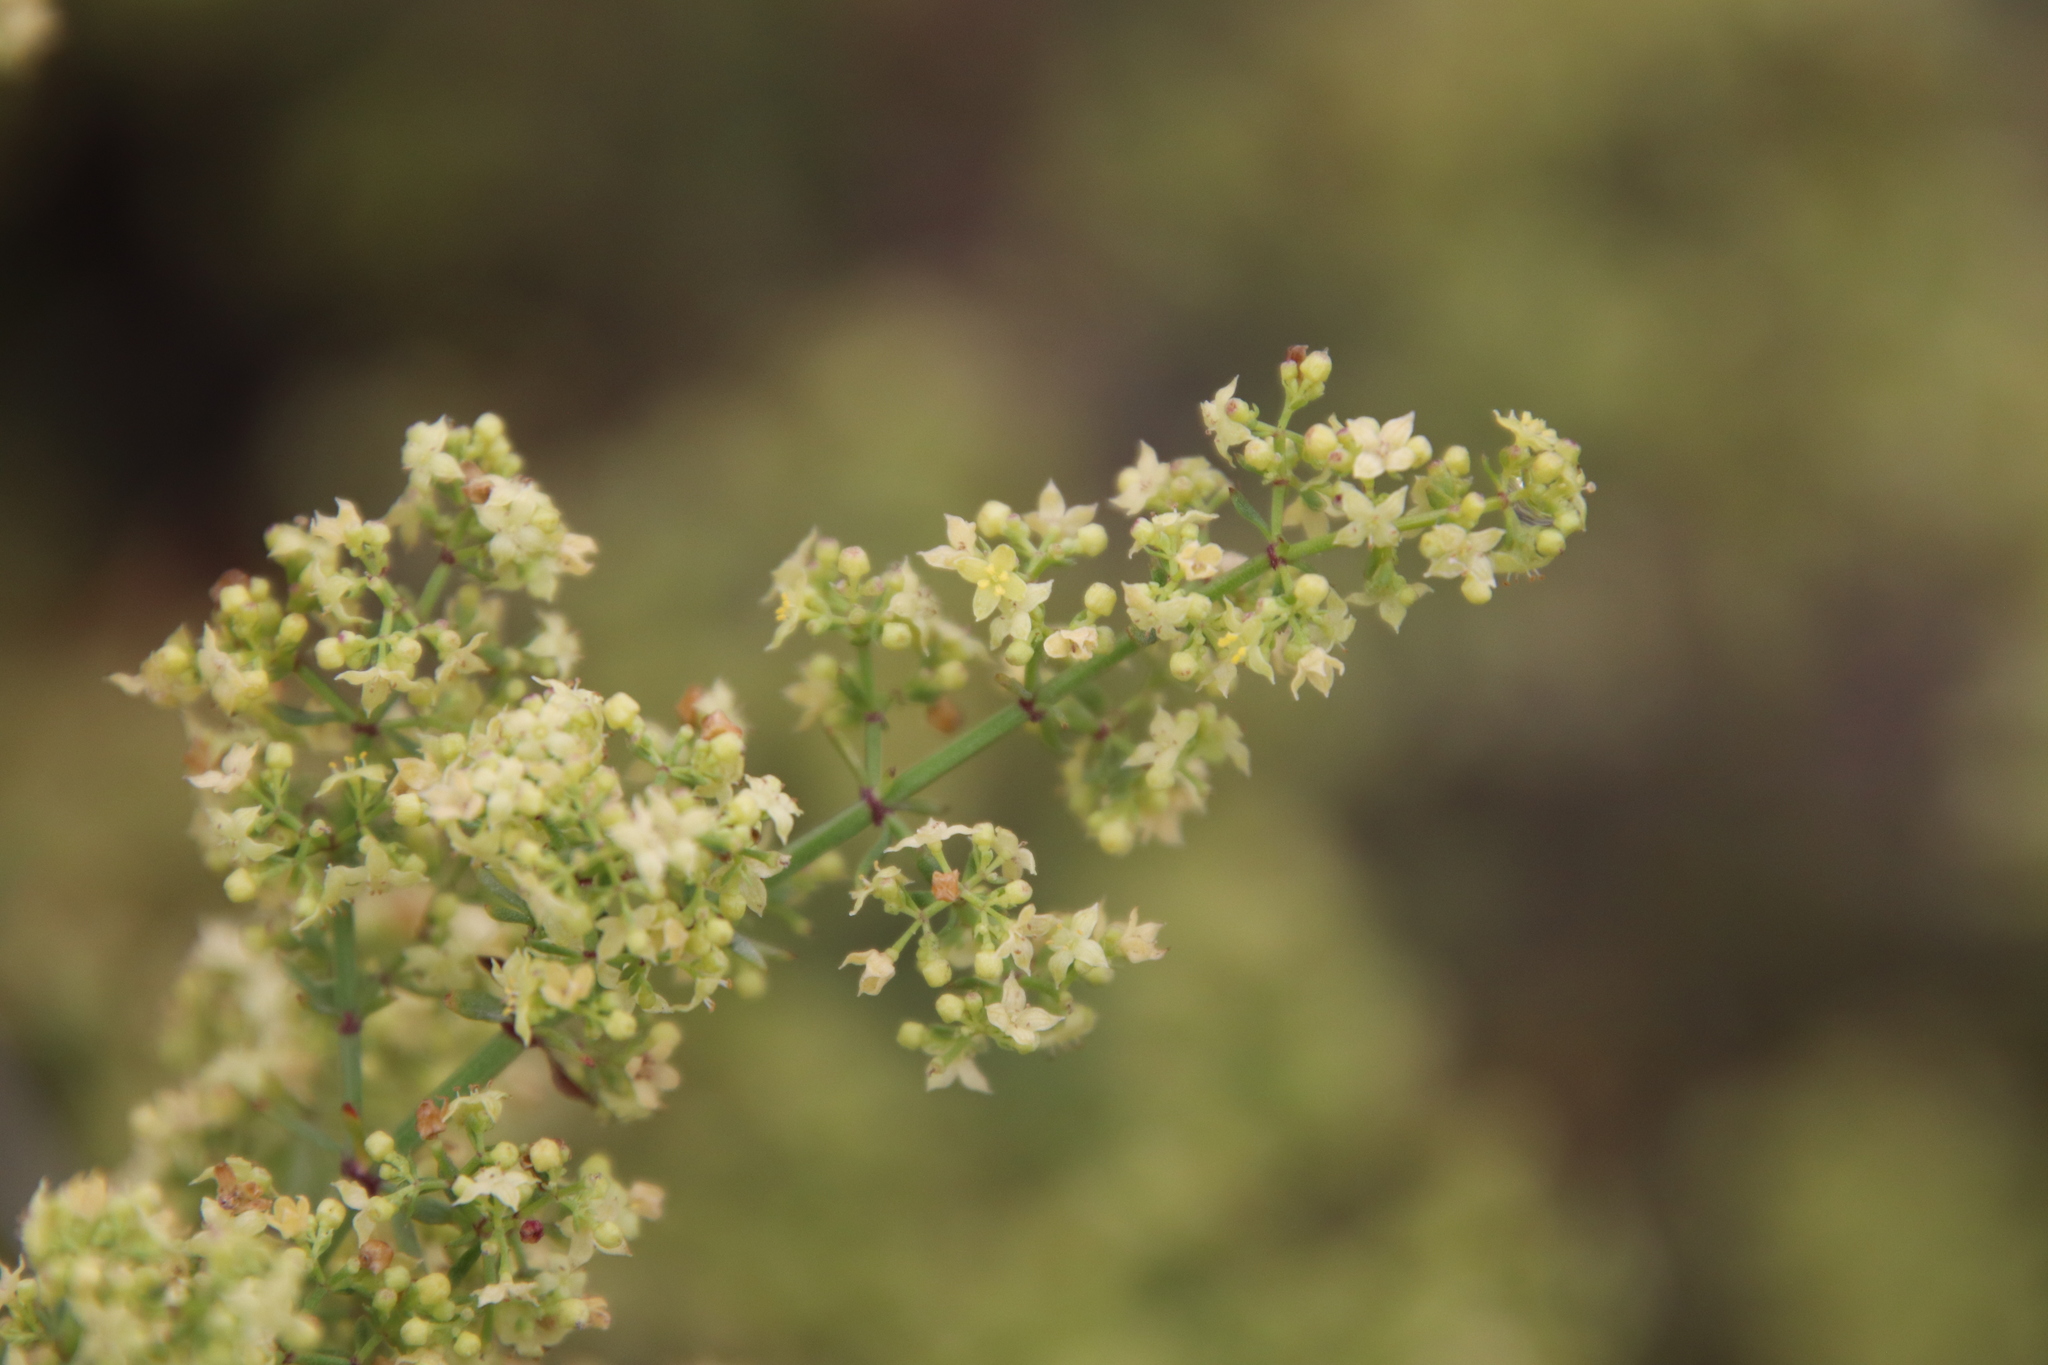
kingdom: Plantae
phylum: Tracheophyta
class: Magnoliopsida
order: Gentianales
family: Rubiaceae
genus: Galium
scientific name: Galium angustifolium
